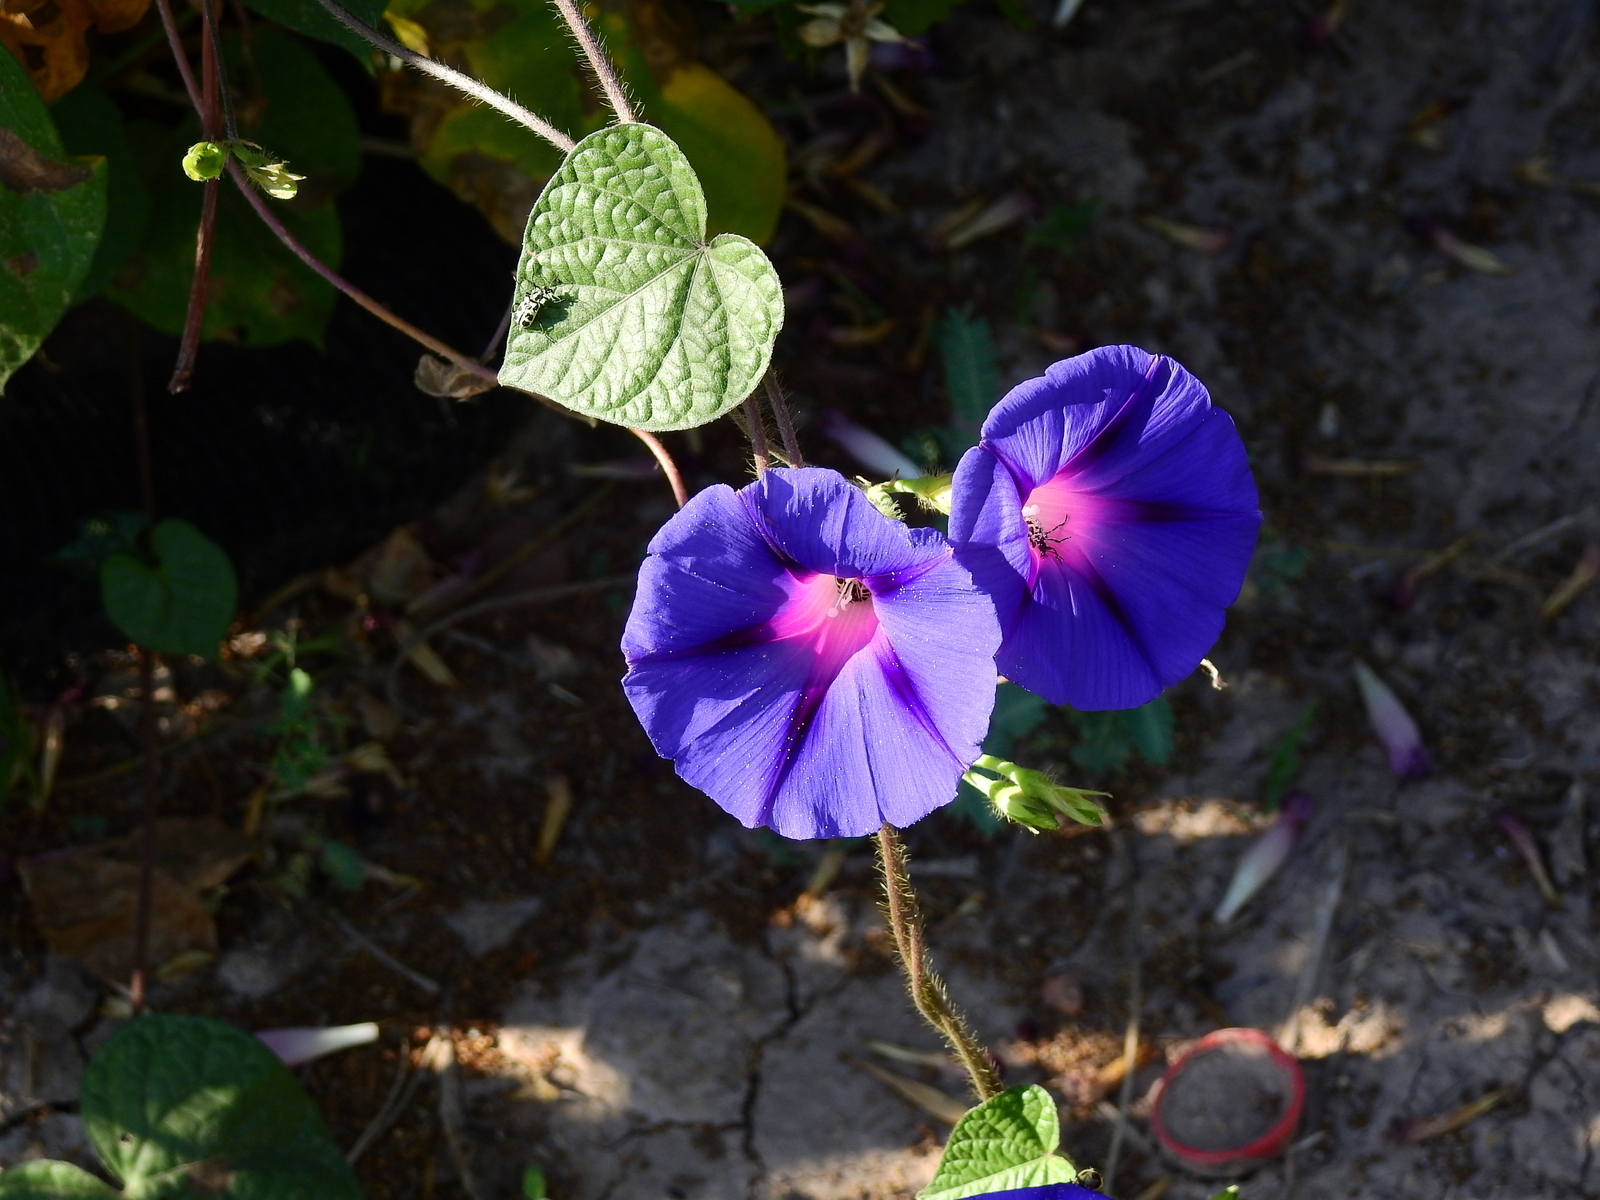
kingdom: Plantae
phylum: Tracheophyta
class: Magnoliopsida
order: Solanales
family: Convolvulaceae
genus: Ipomoea
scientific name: Ipomoea purpurea
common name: Common morning-glory
